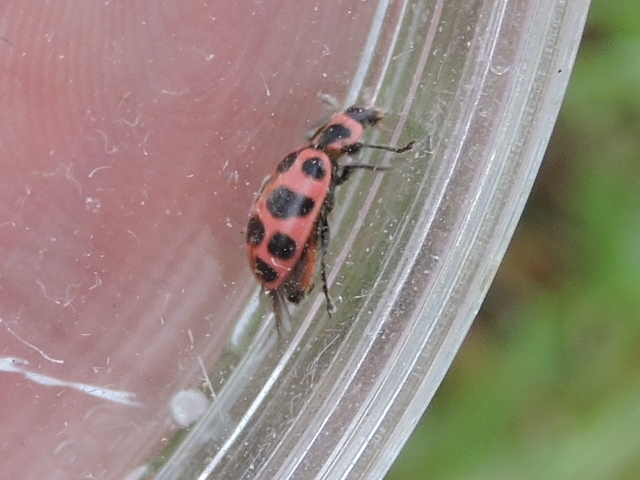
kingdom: Animalia
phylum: Arthropoda
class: Insecta
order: Coleoptera
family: Coccinellidae
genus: Coleomegilla
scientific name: Coleomegilla maculata
